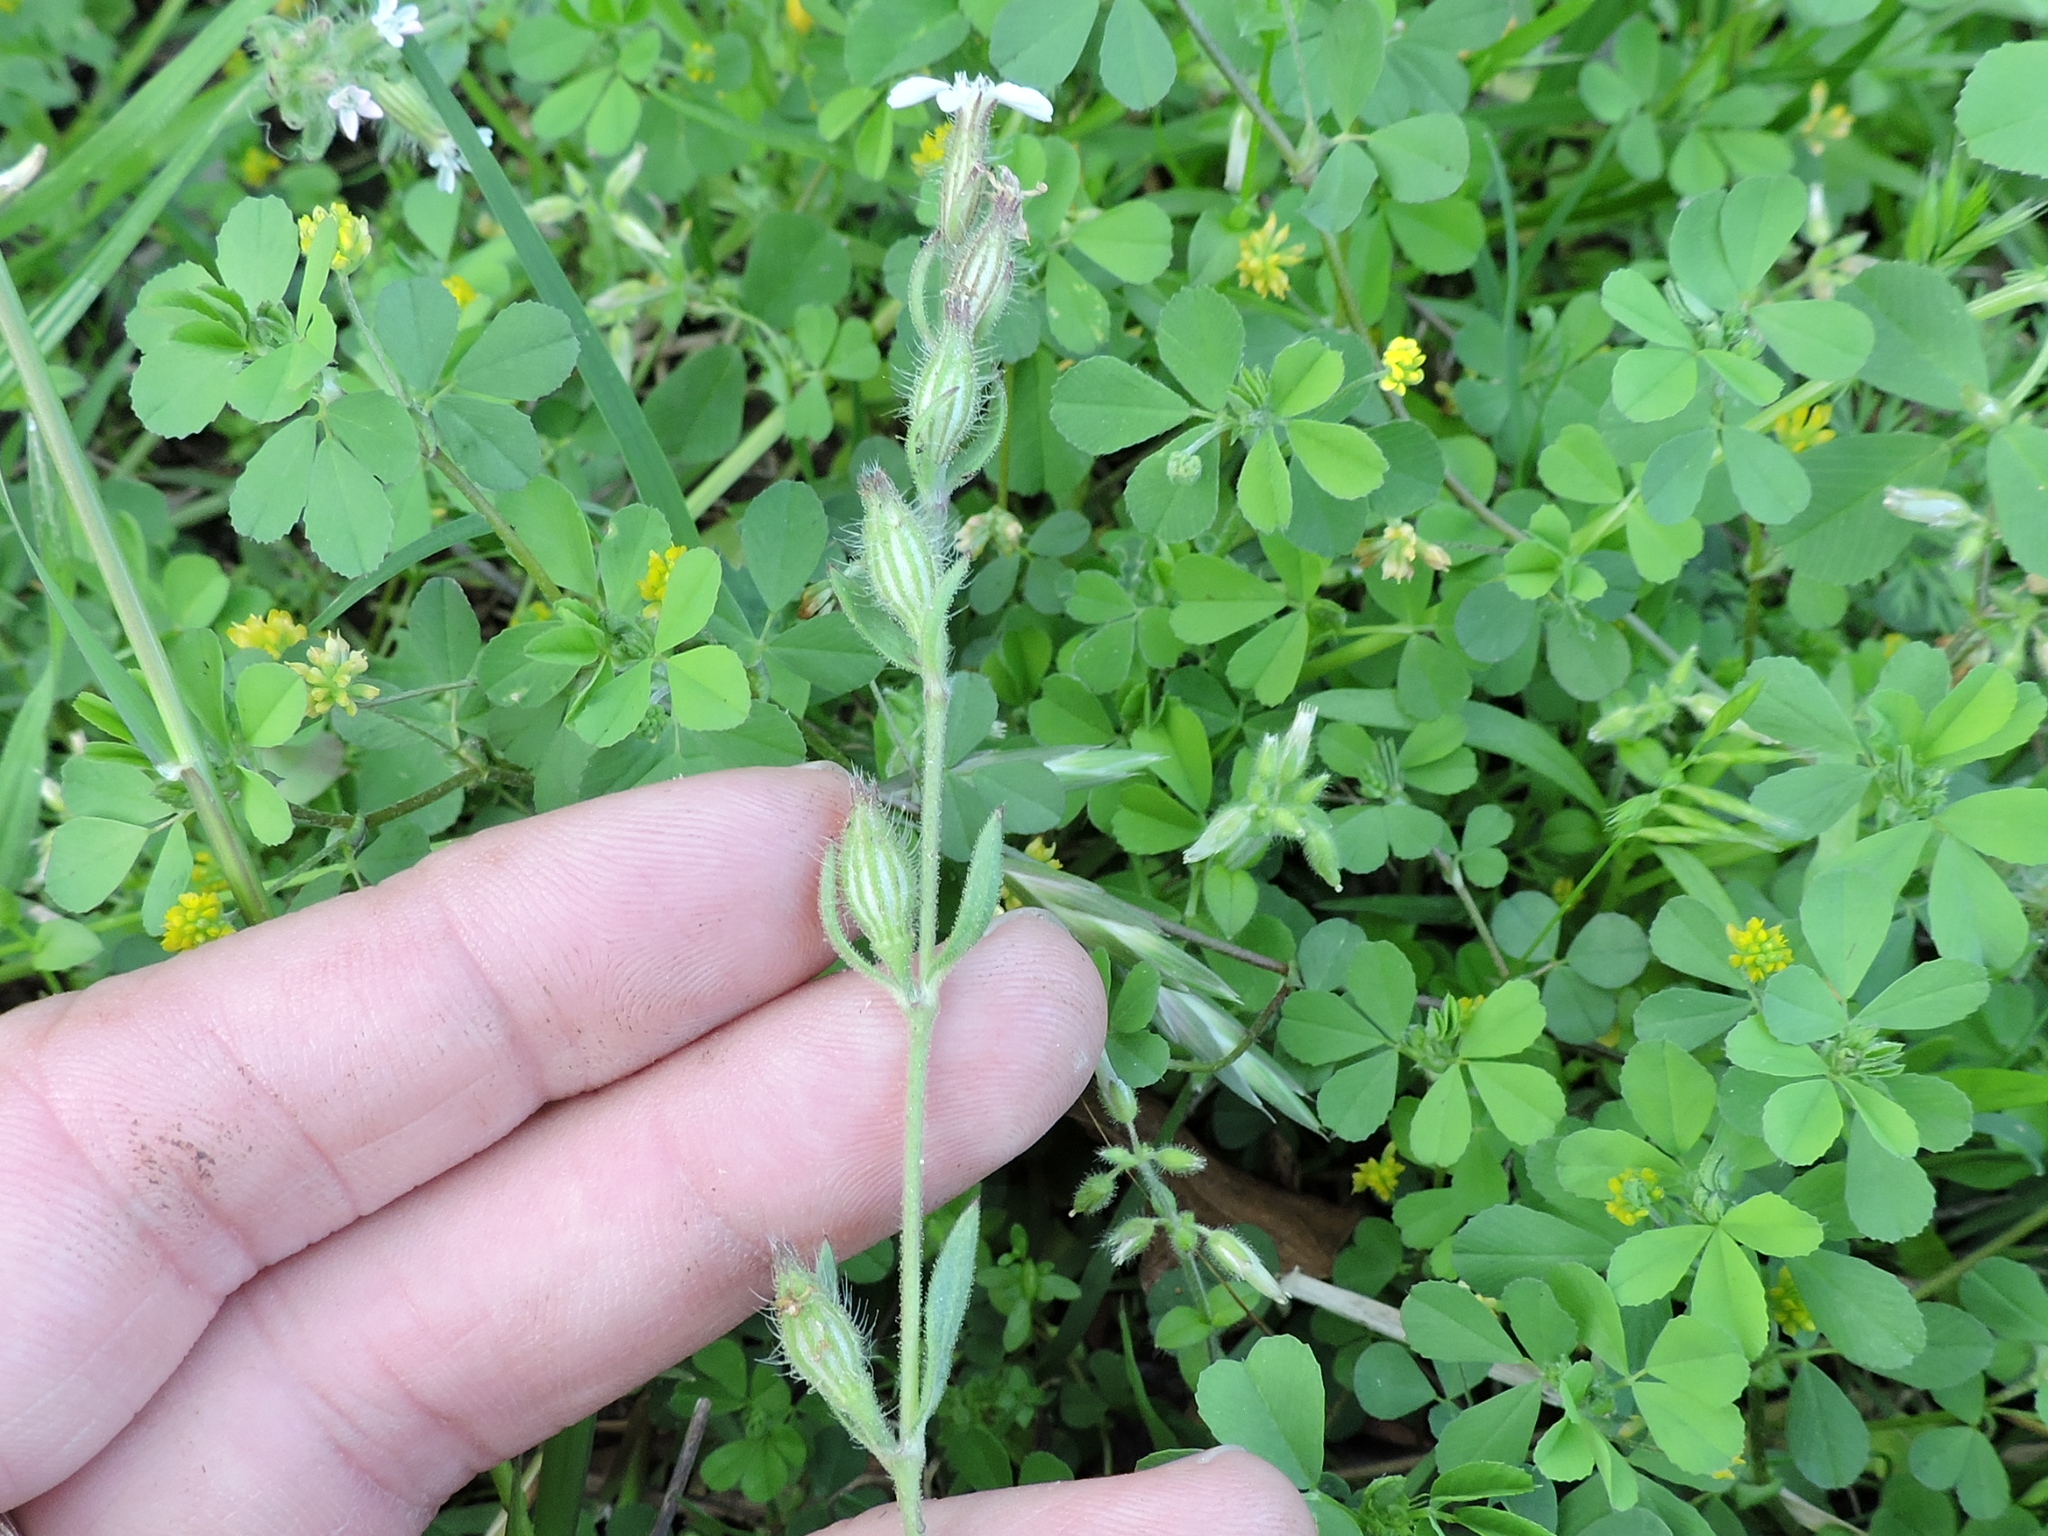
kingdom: Plantae
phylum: Tracheophyta
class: Magnoliopsida
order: Caryophyllales
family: Caryophyllaceae
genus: Silene
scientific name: Silene gallica
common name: Small-flowered catchfly
